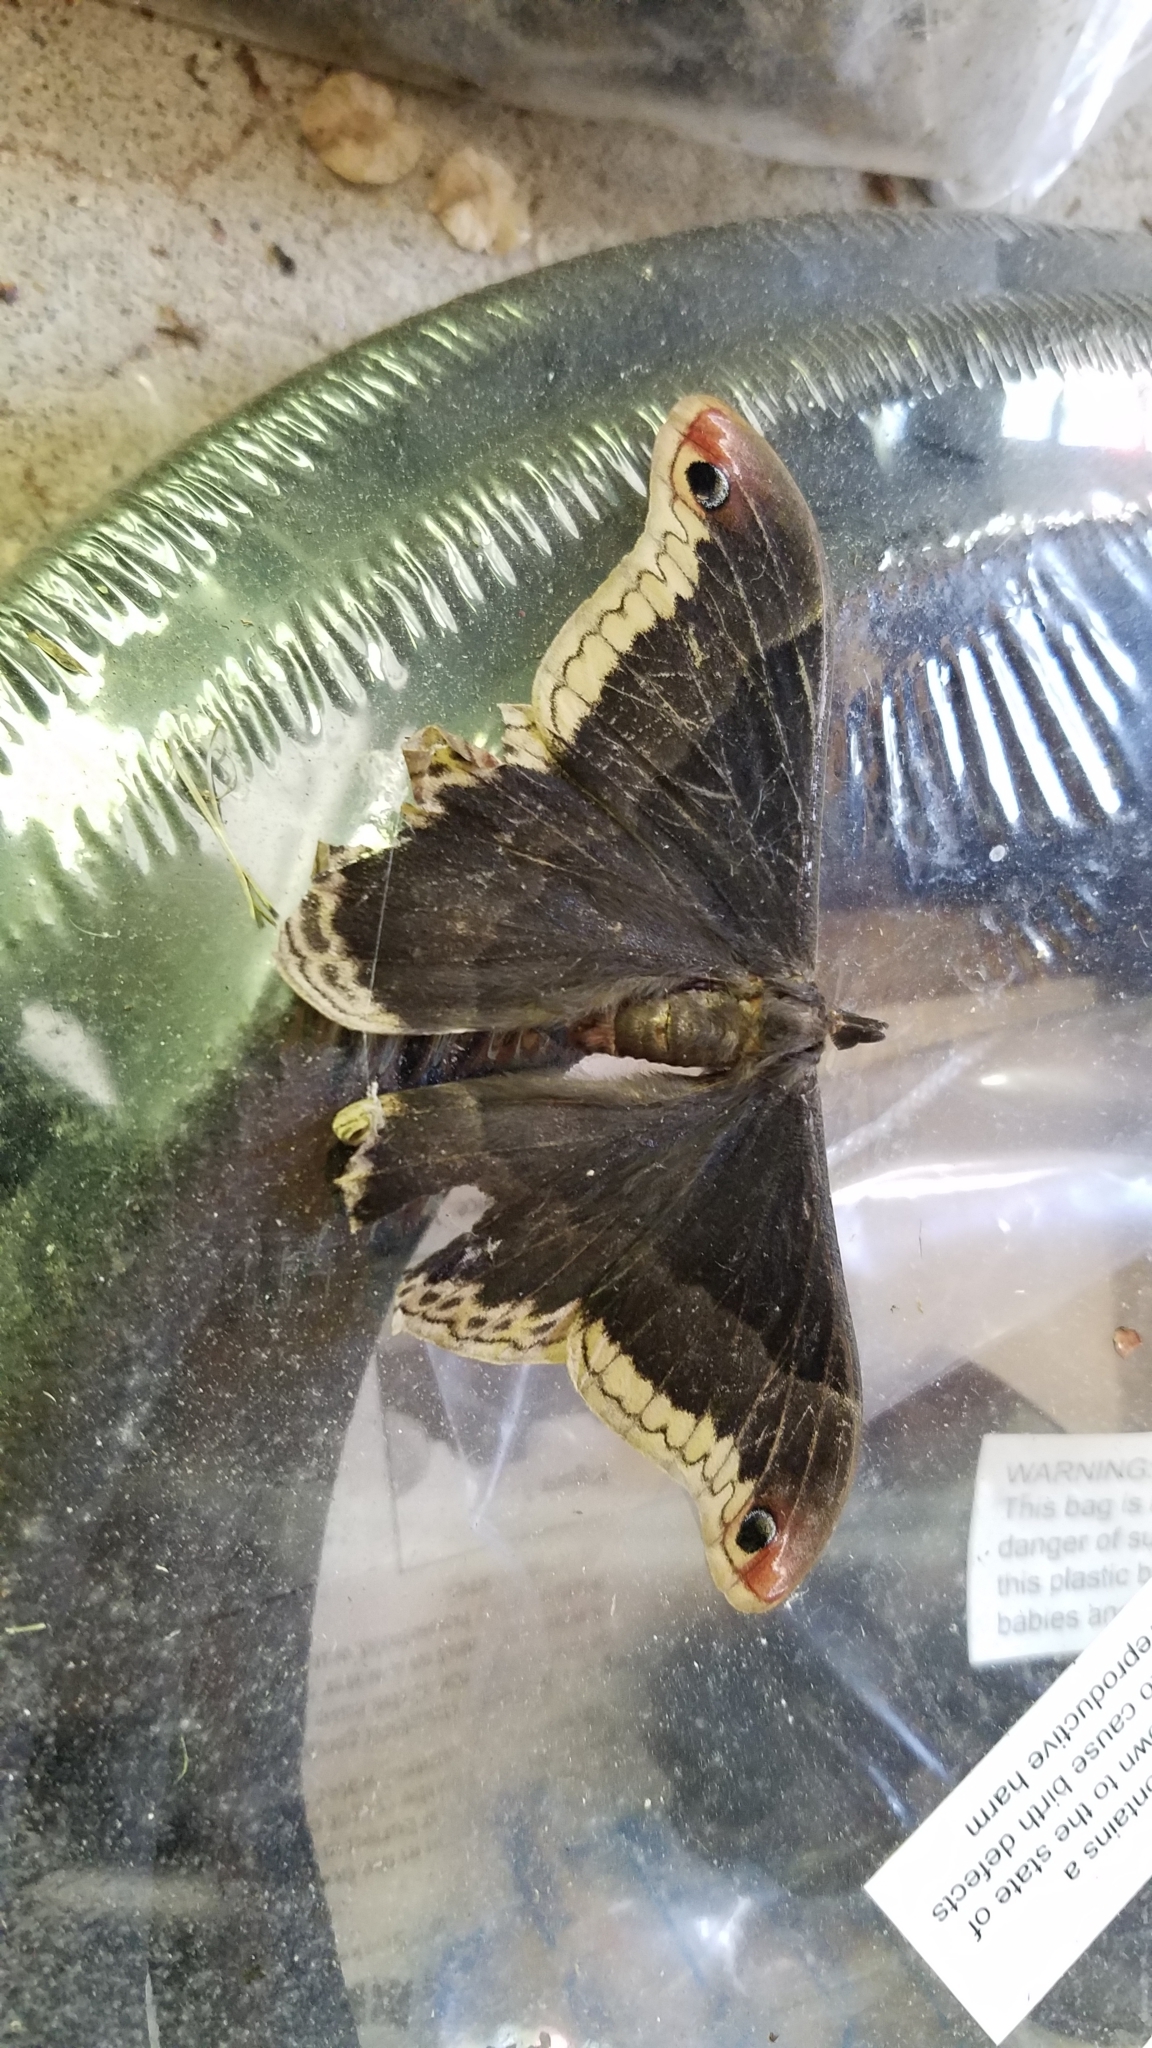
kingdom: Animalia
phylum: Arthropoda
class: Insecta
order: Lepidoptera
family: Saturniidae
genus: Callosamia
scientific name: Callosamia promethea
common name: Promethea silkmoth
